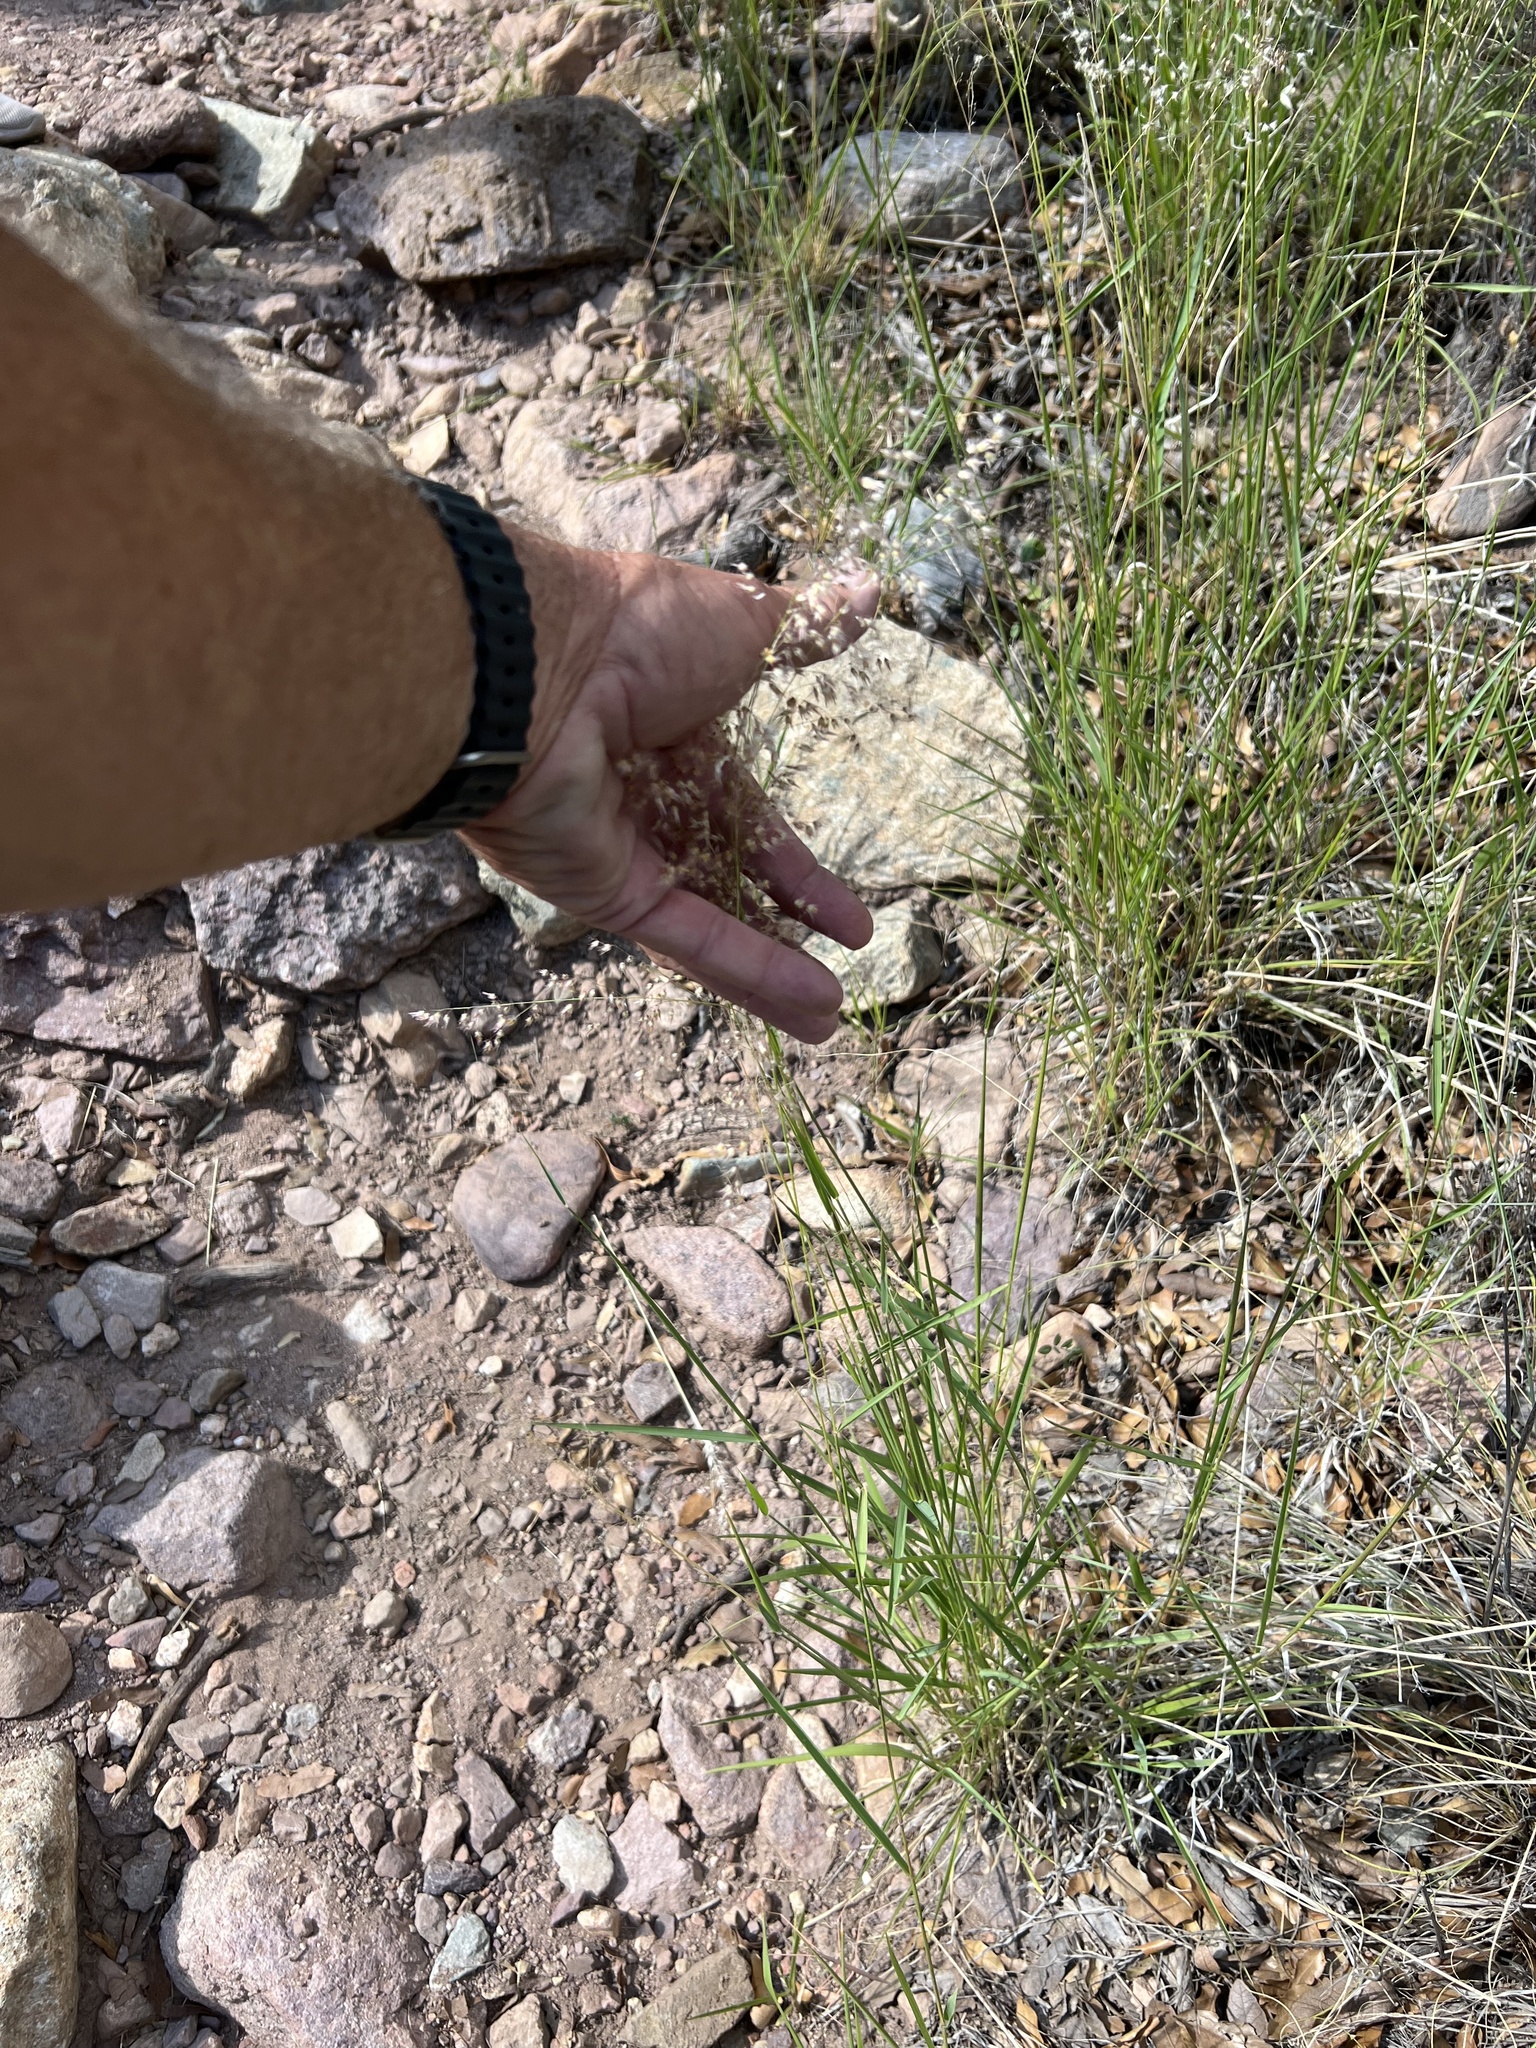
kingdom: Plantae
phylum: Tracheophyta
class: Liliopsida
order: Poales
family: Poaceae
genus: Melinis
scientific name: Melinis repens
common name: Rose natal grass
